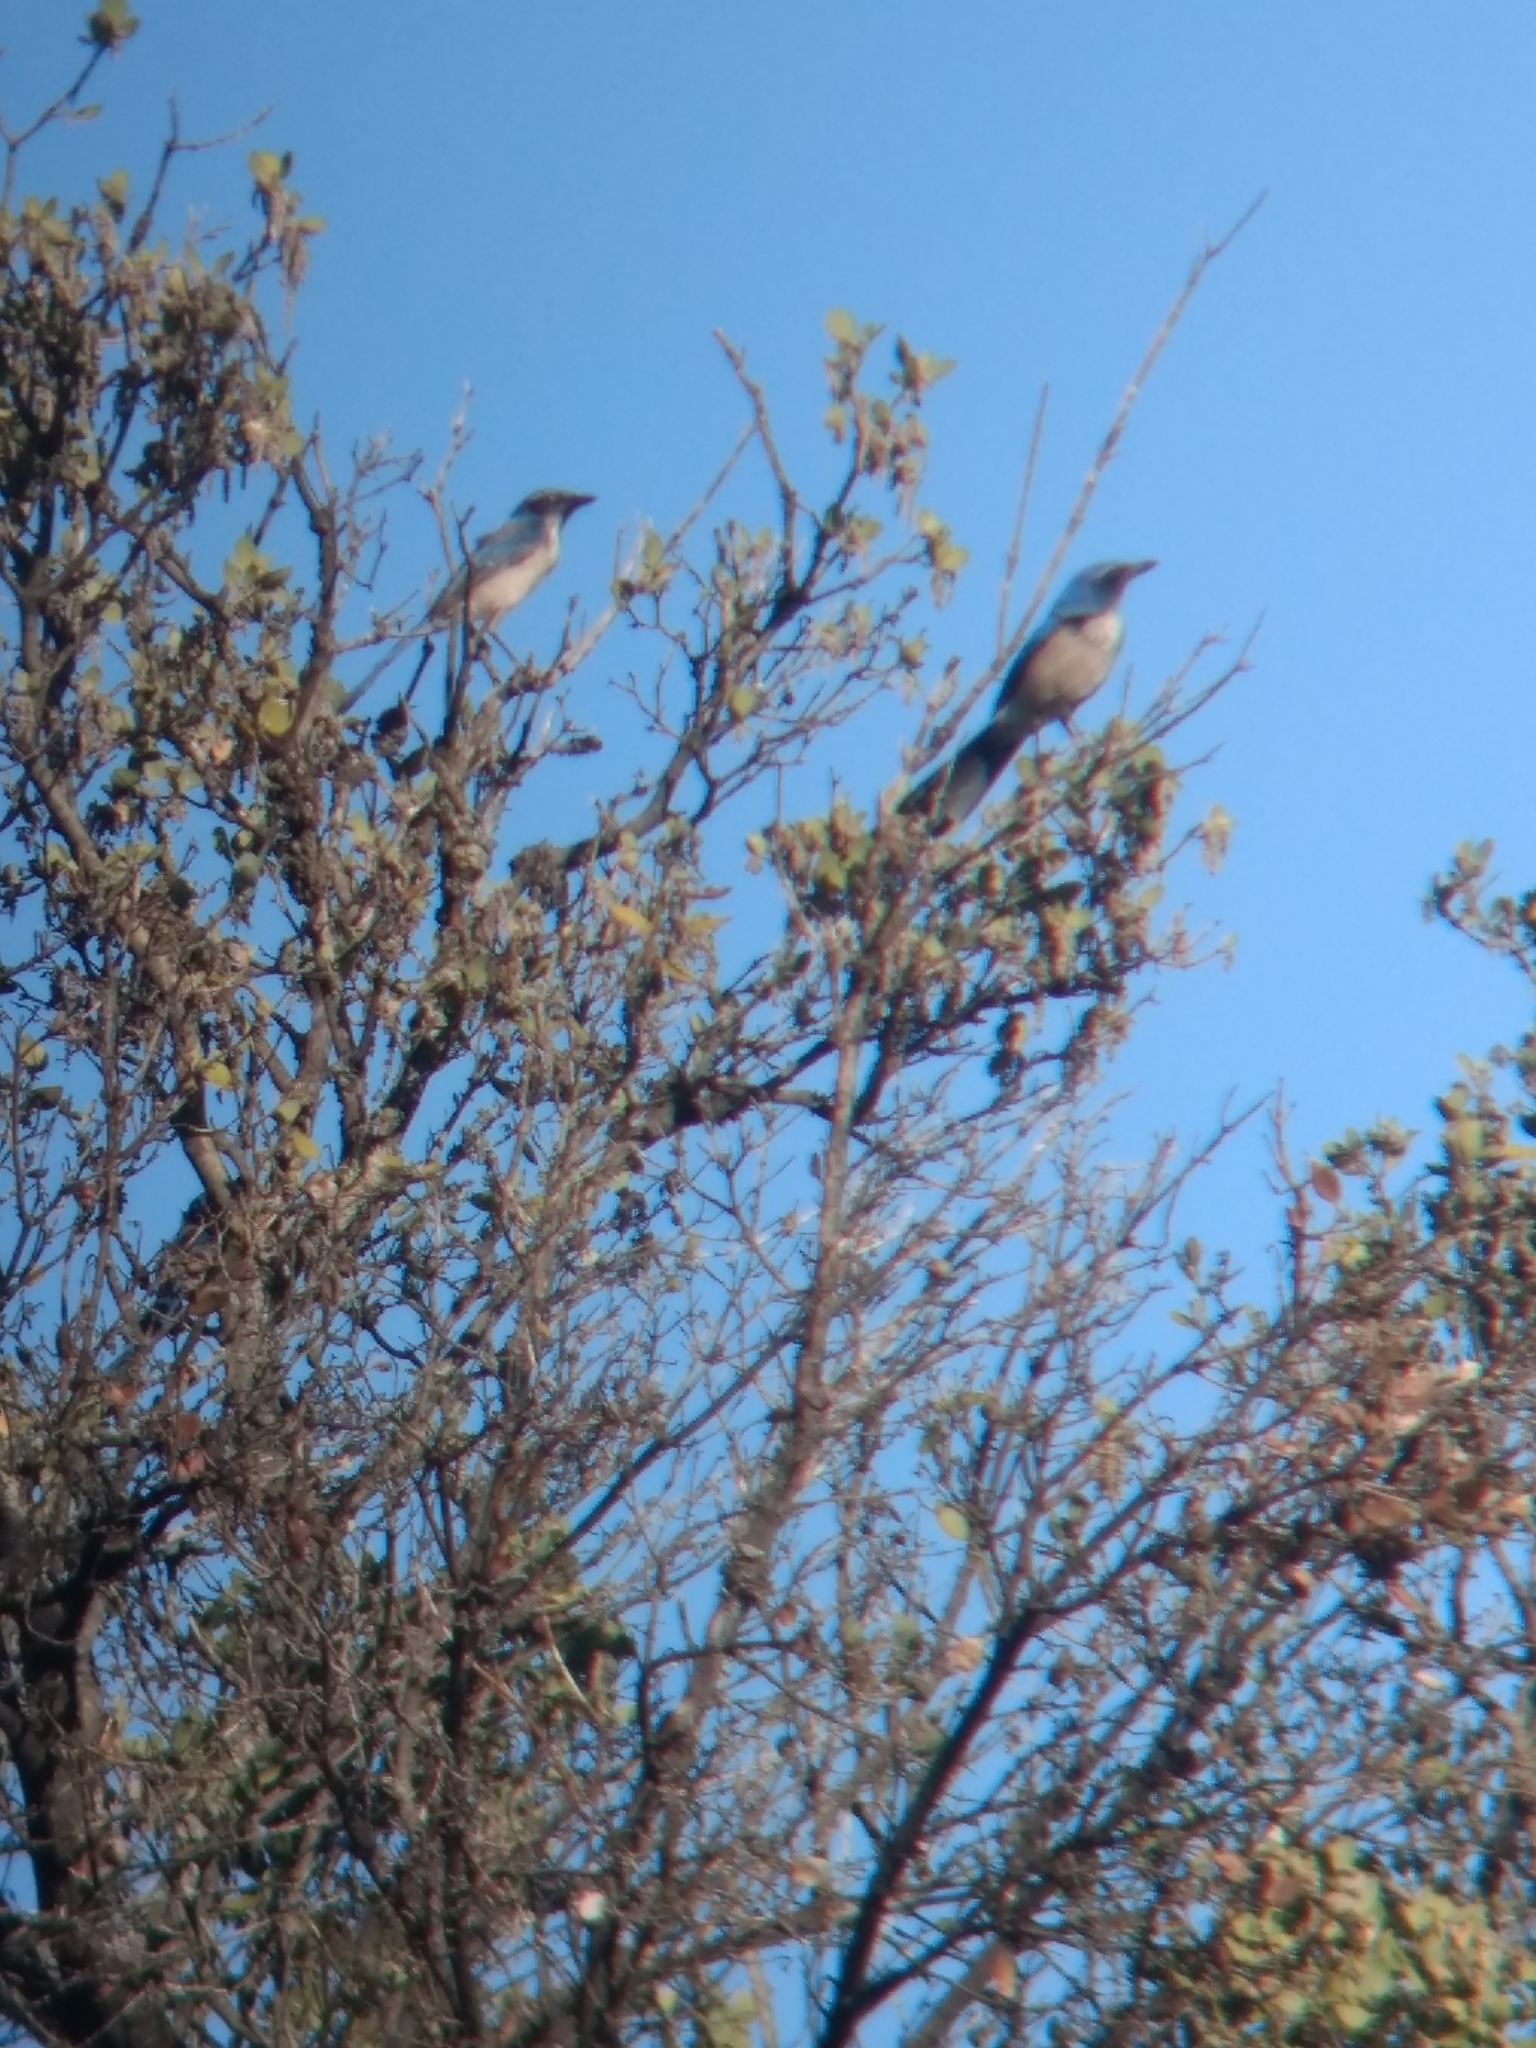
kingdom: Animalia
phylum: Chordata
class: Aves
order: Passeriformes
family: Corvidae
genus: Aphelocoma
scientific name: Aphelocoma californica
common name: California scrub-jay
